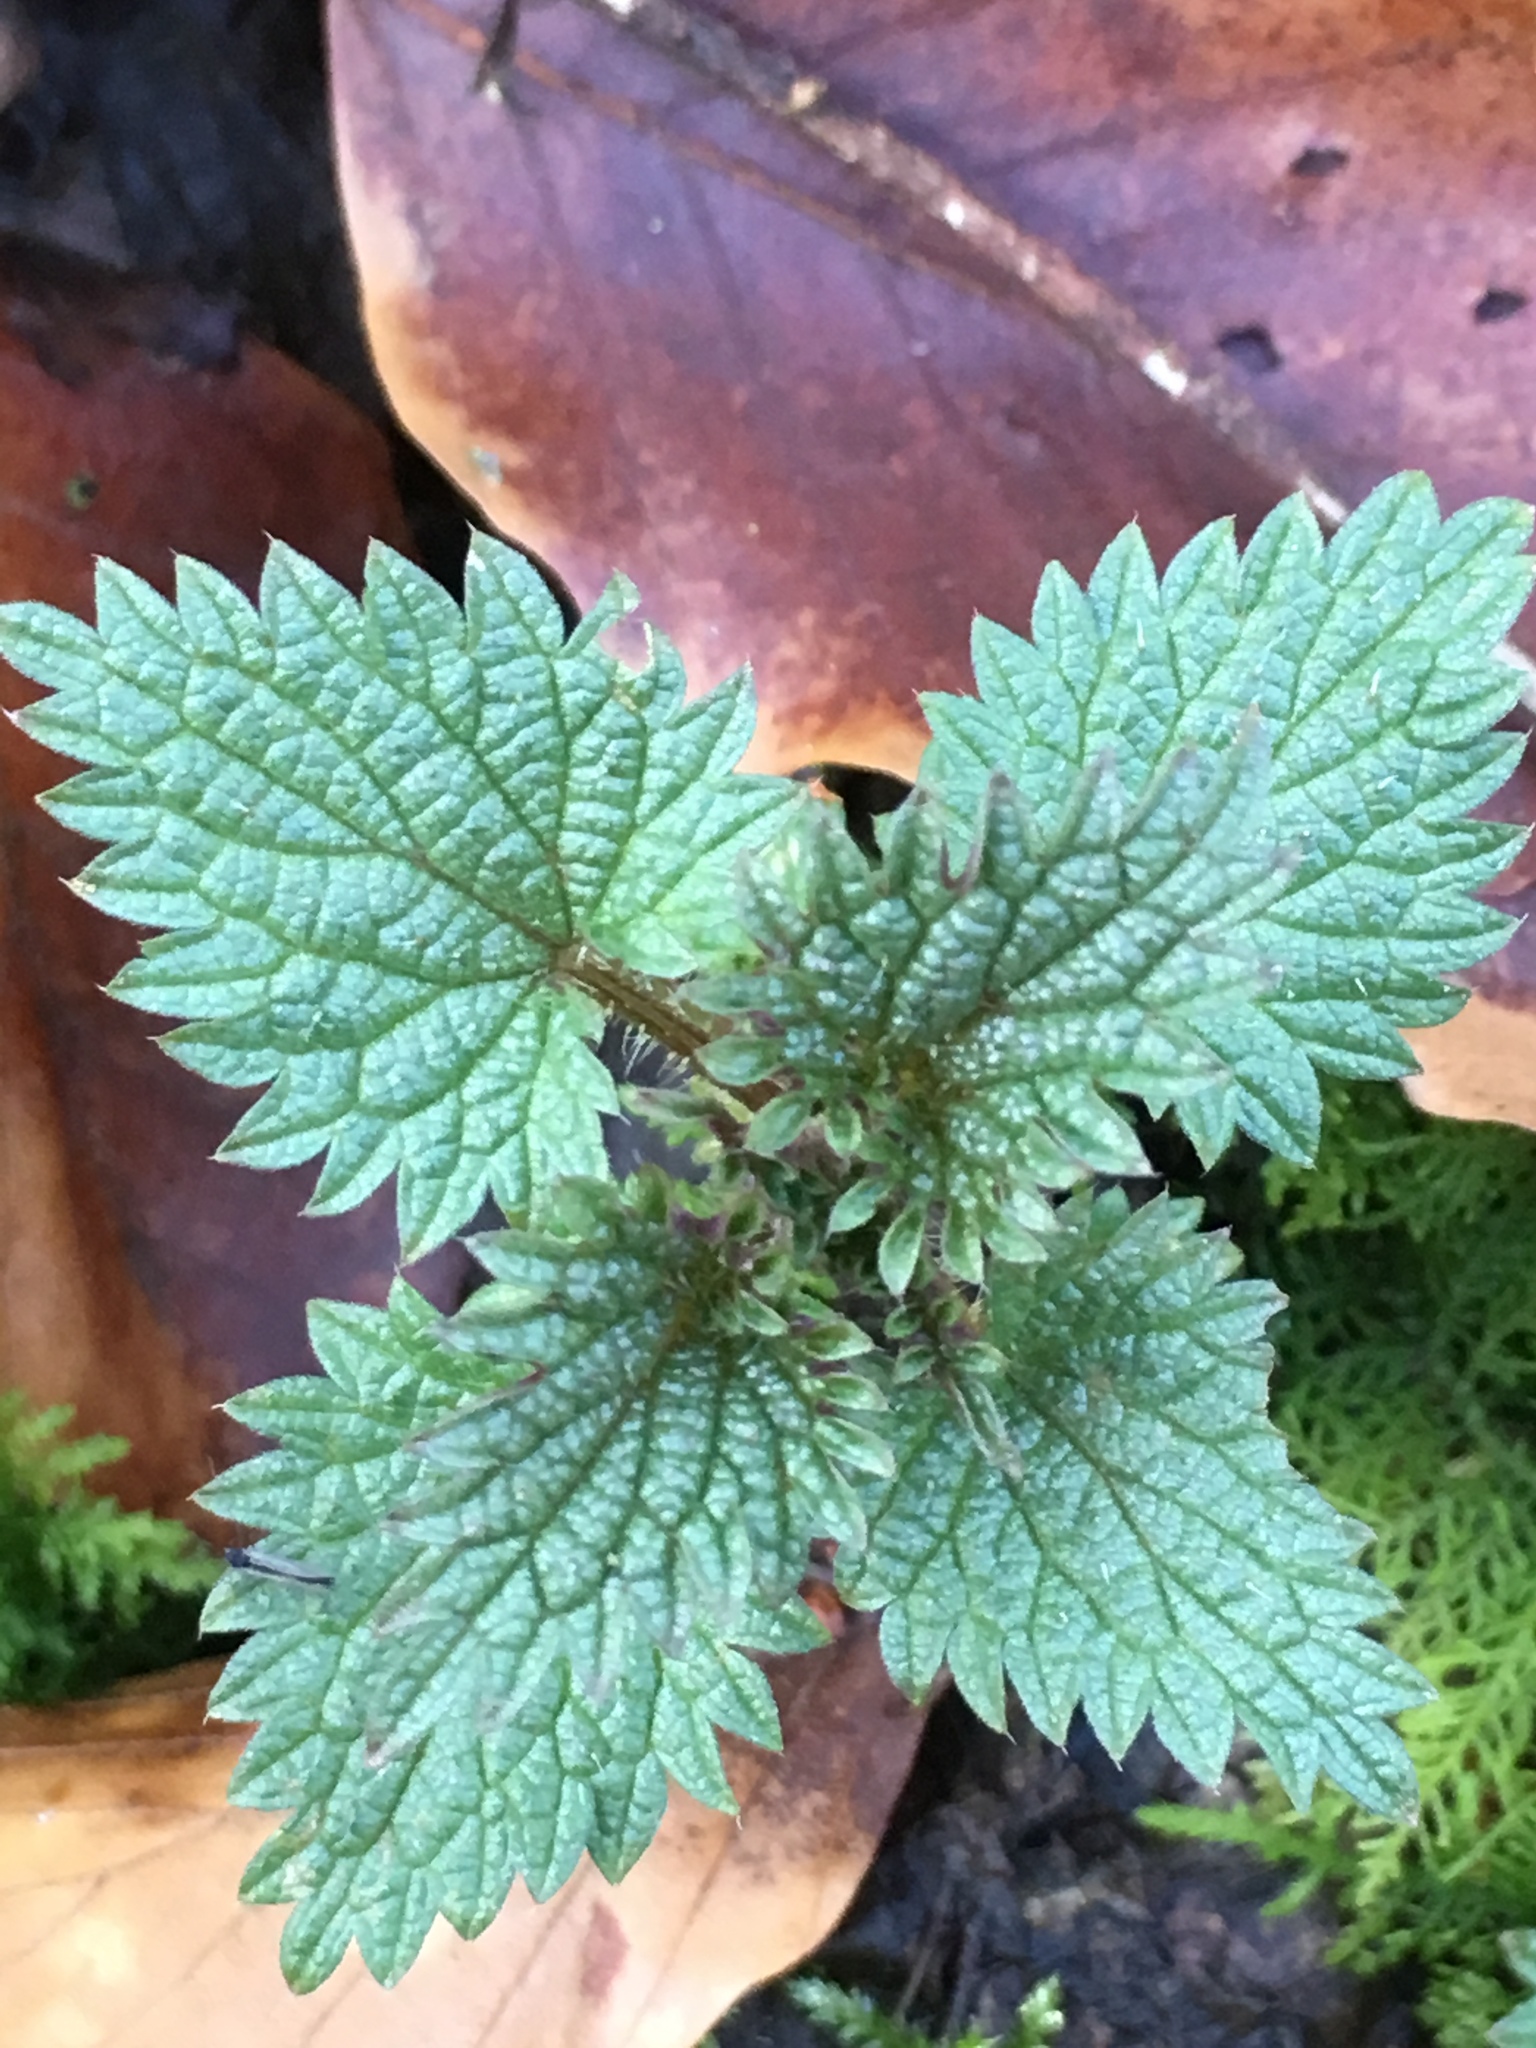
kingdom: Plantae
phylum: Tracheophyta
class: Magnoliopsida
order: Rosales
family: Urticaceae
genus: Urtica
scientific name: Urtica urens
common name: Dwarf nettle
